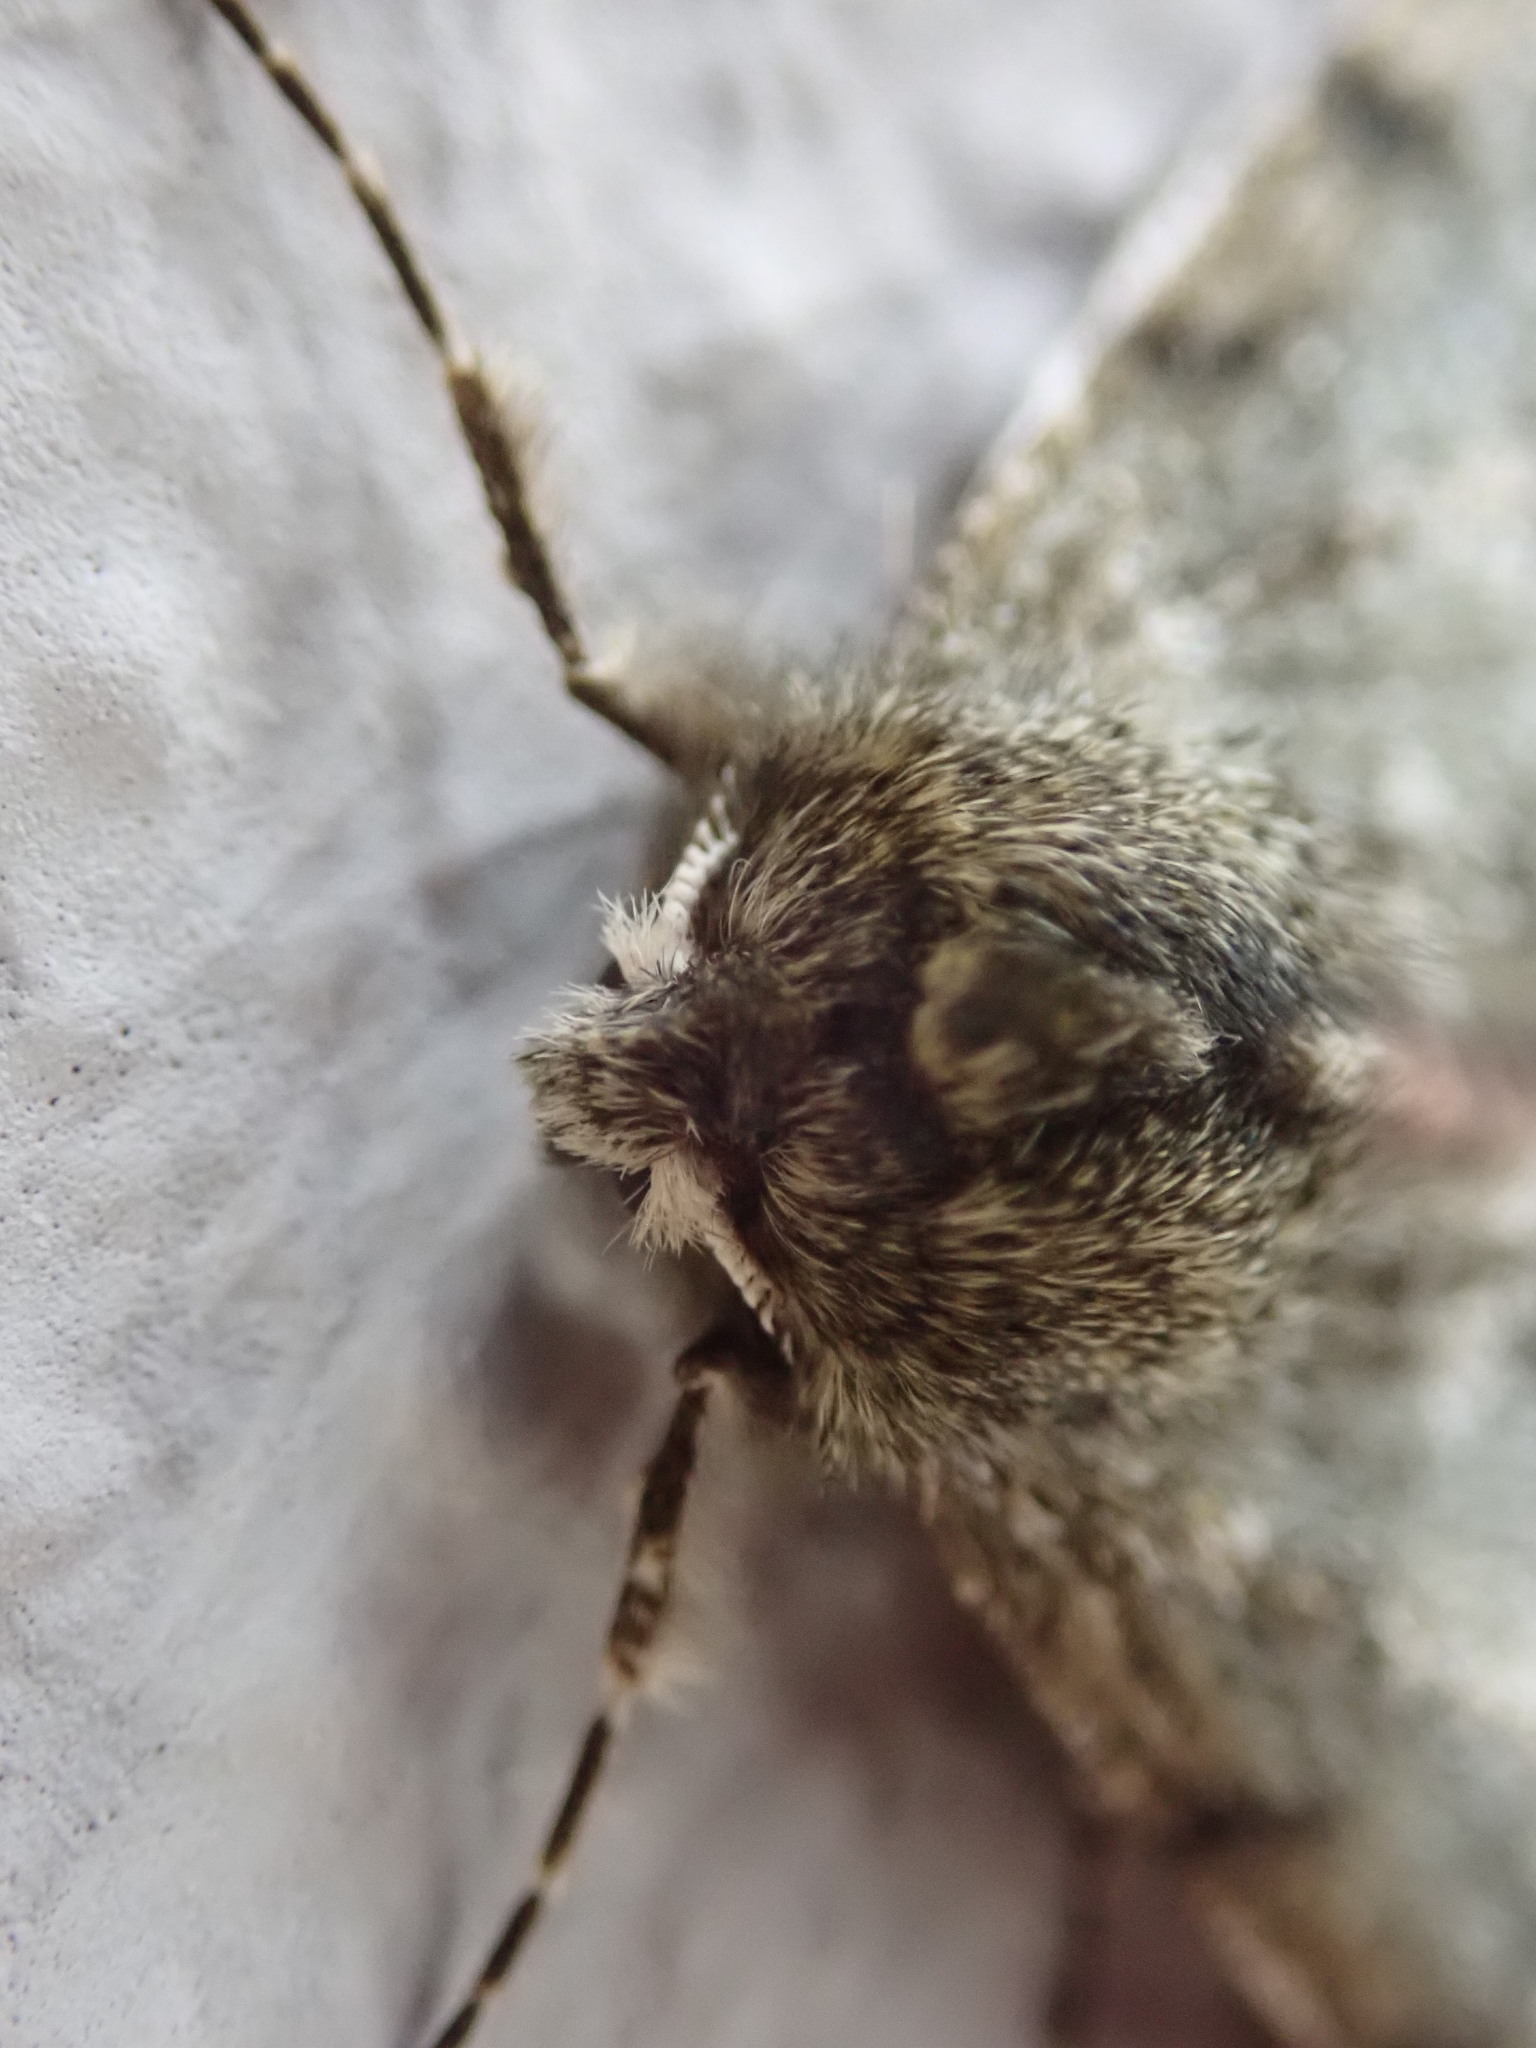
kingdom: Animalia
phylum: Arthropoda
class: Insecta
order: Lepidoptera
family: Geometridae
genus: Phigalia
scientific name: Phigalia pilosaria
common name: Pale brindled beauty
